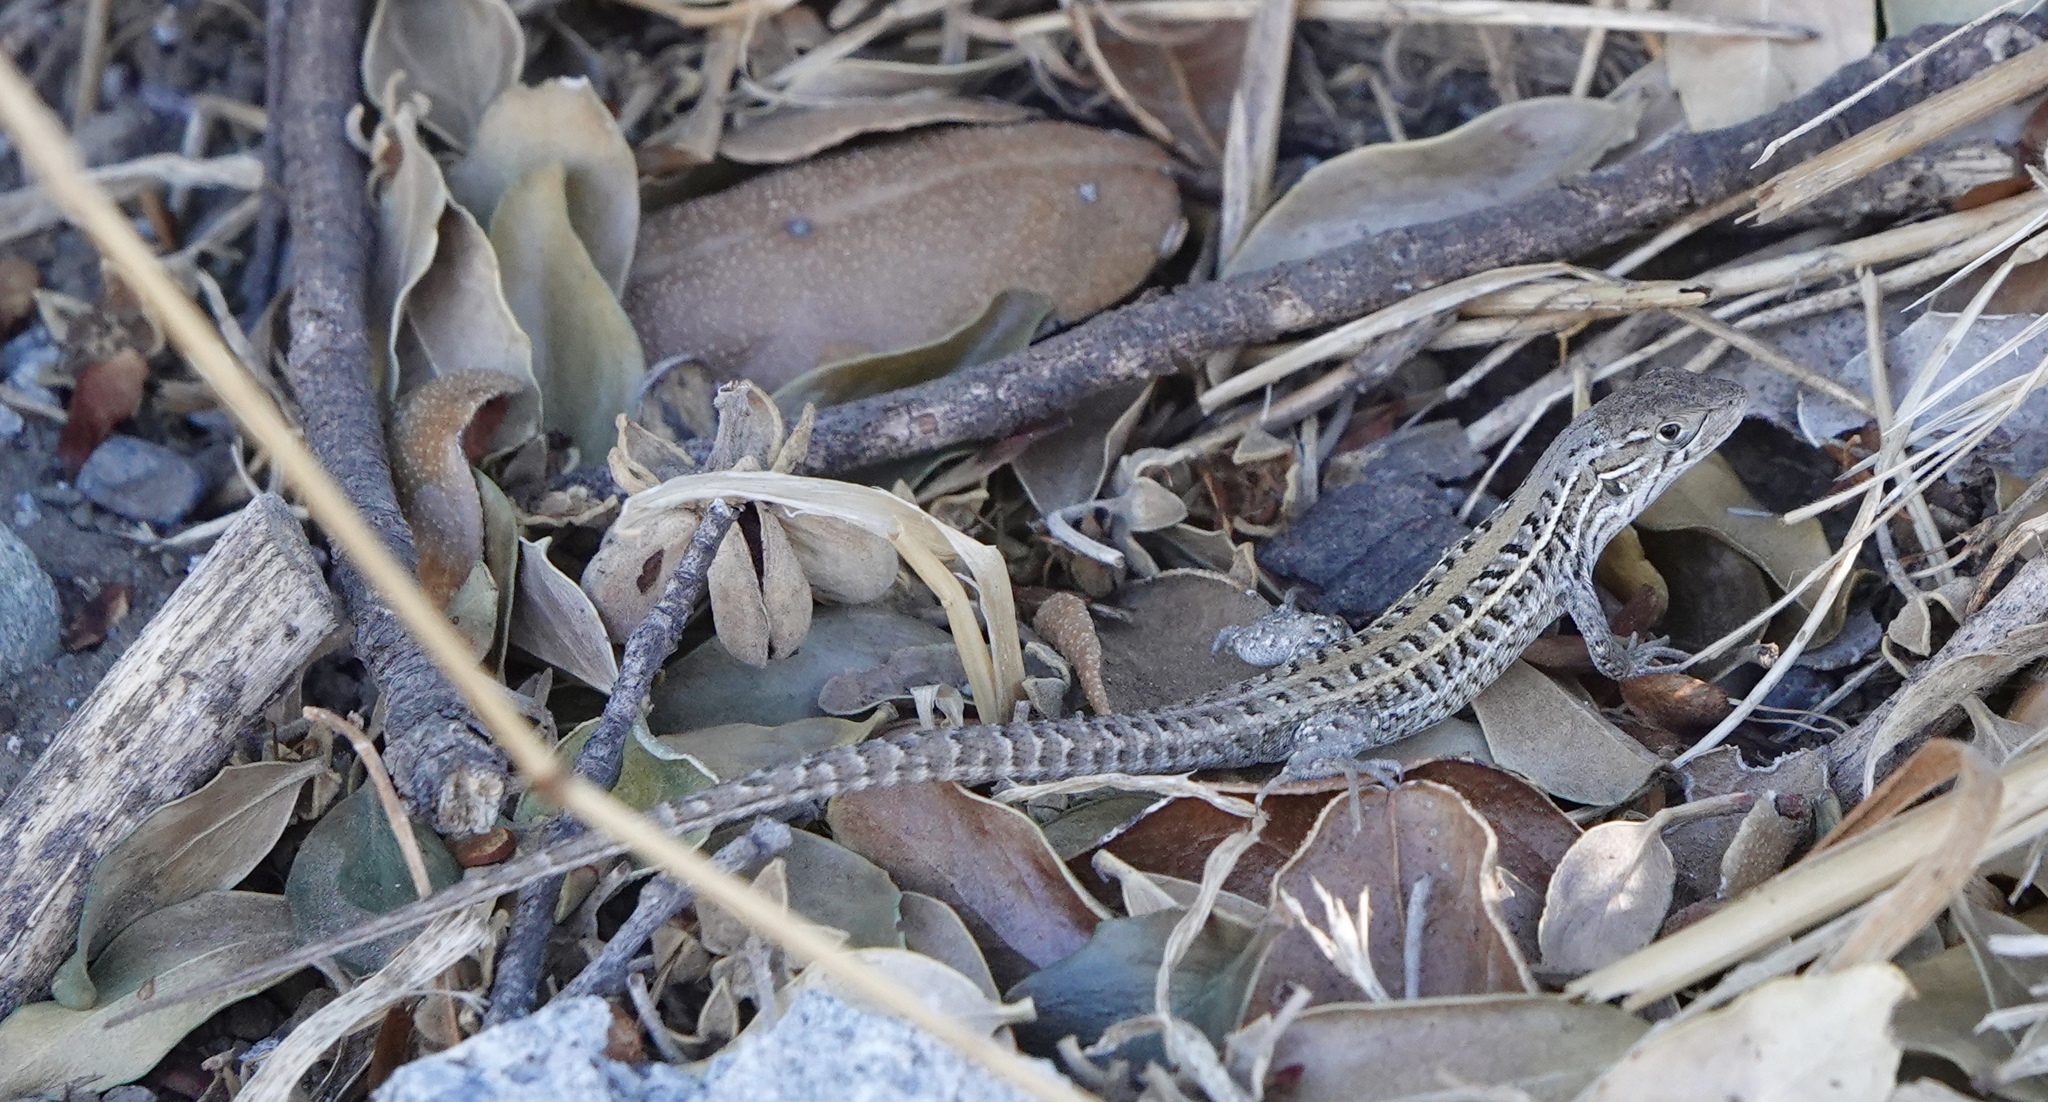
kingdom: Animalia
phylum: Chordata
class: Squamata
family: Liolaemidae
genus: Liolaemus
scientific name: Liolaemus lemniscatus
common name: Wreath tree iguana
